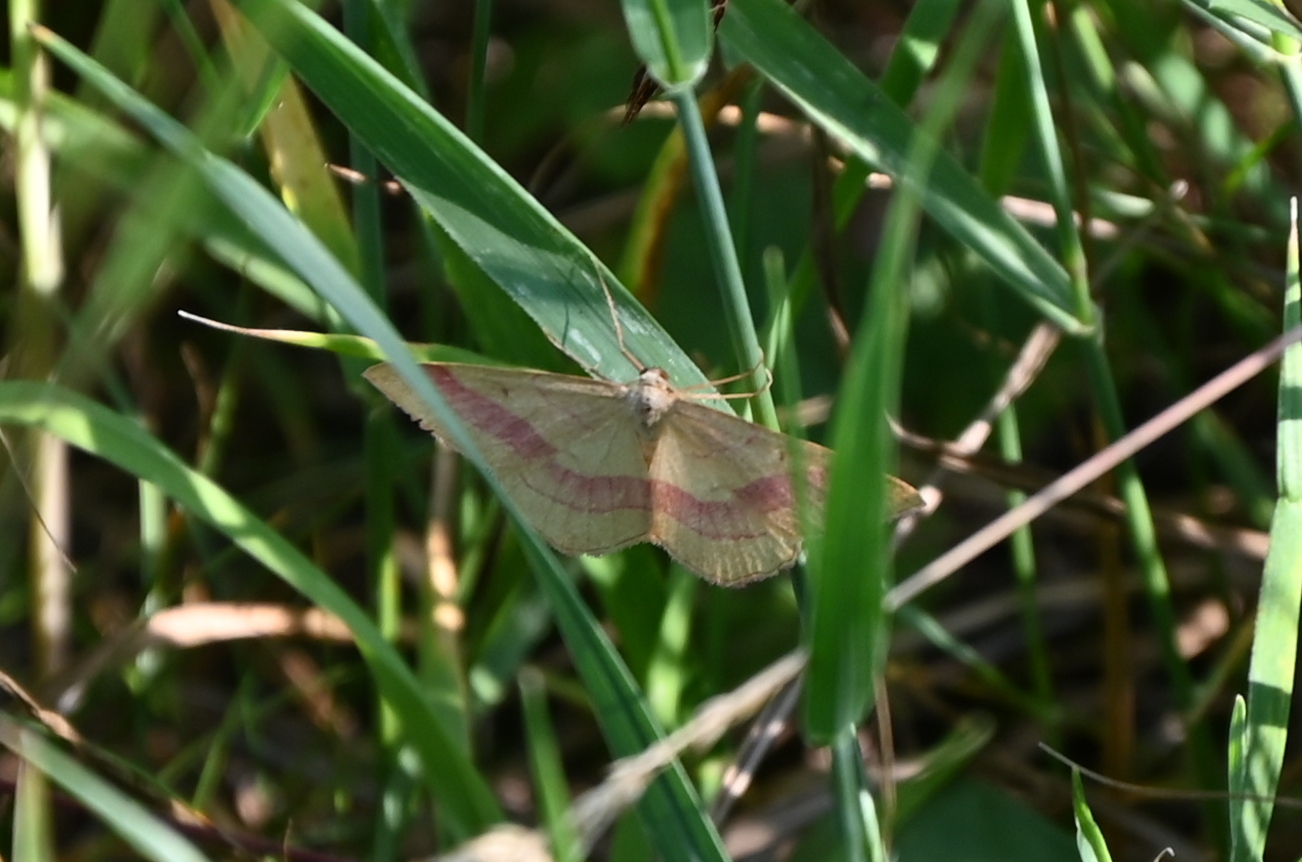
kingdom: Animalia
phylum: Arthropoda
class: Insecta
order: Lepidoptera
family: Geometridae
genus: Rhodostrophia
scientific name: Rhodostrophia vibicaria
